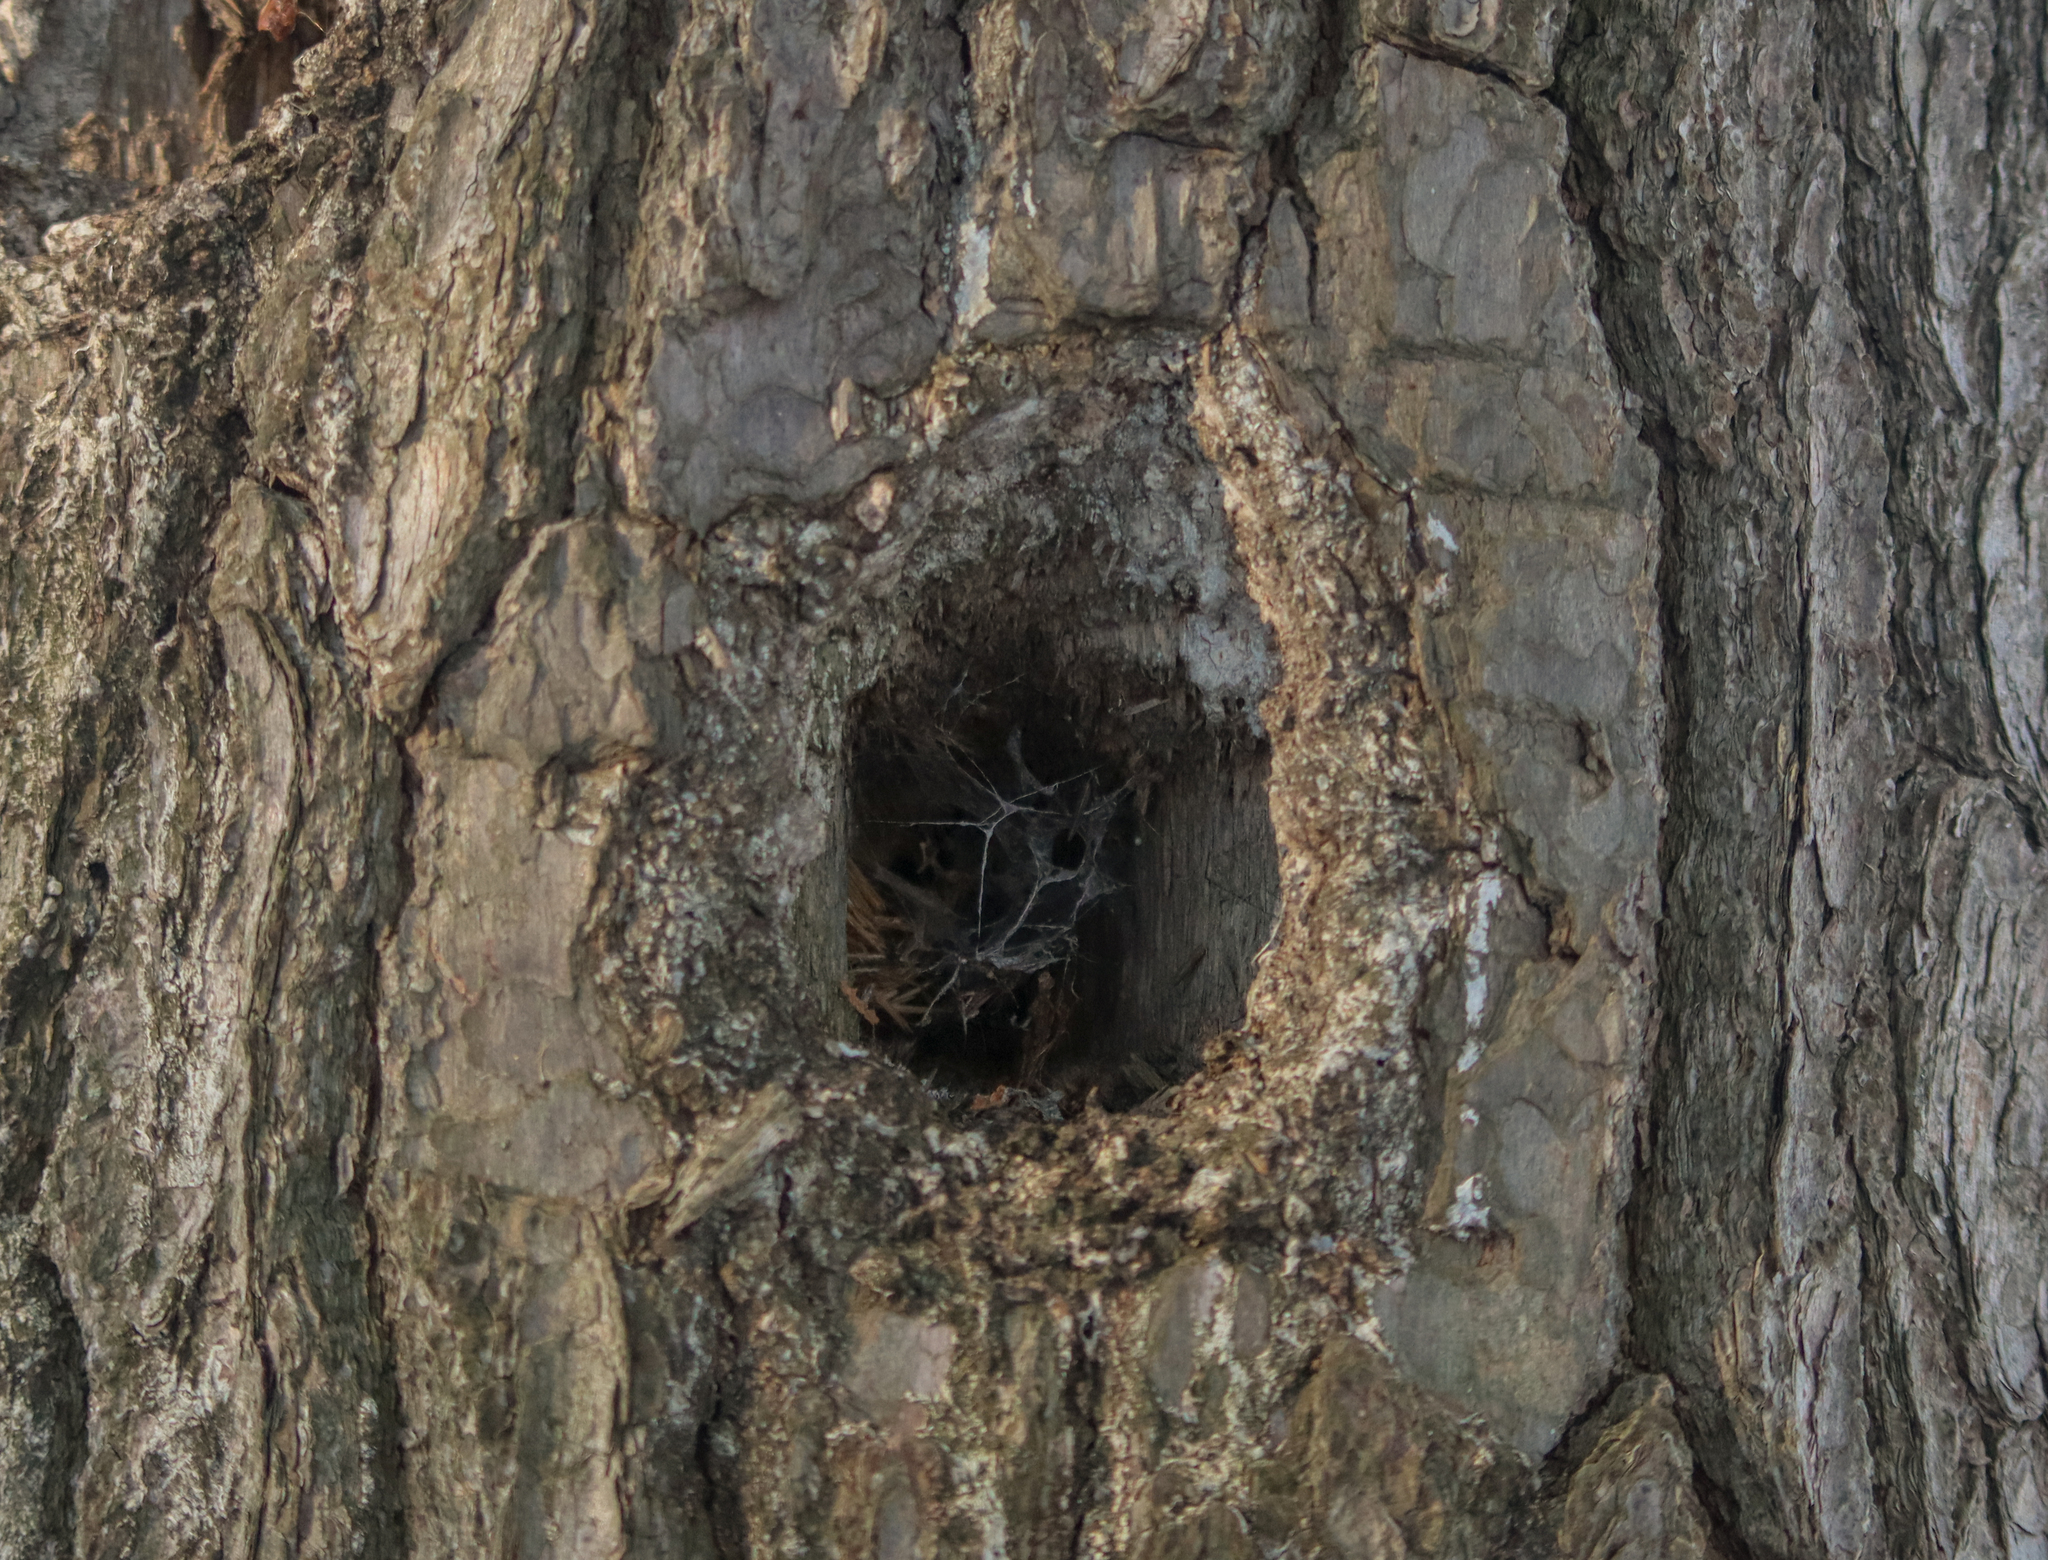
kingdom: Animalia
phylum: Chordata
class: Aves
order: Piciformes
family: Picidae
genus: Dryocopus
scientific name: Dryocopus pileatus
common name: Pileated woodpecker
